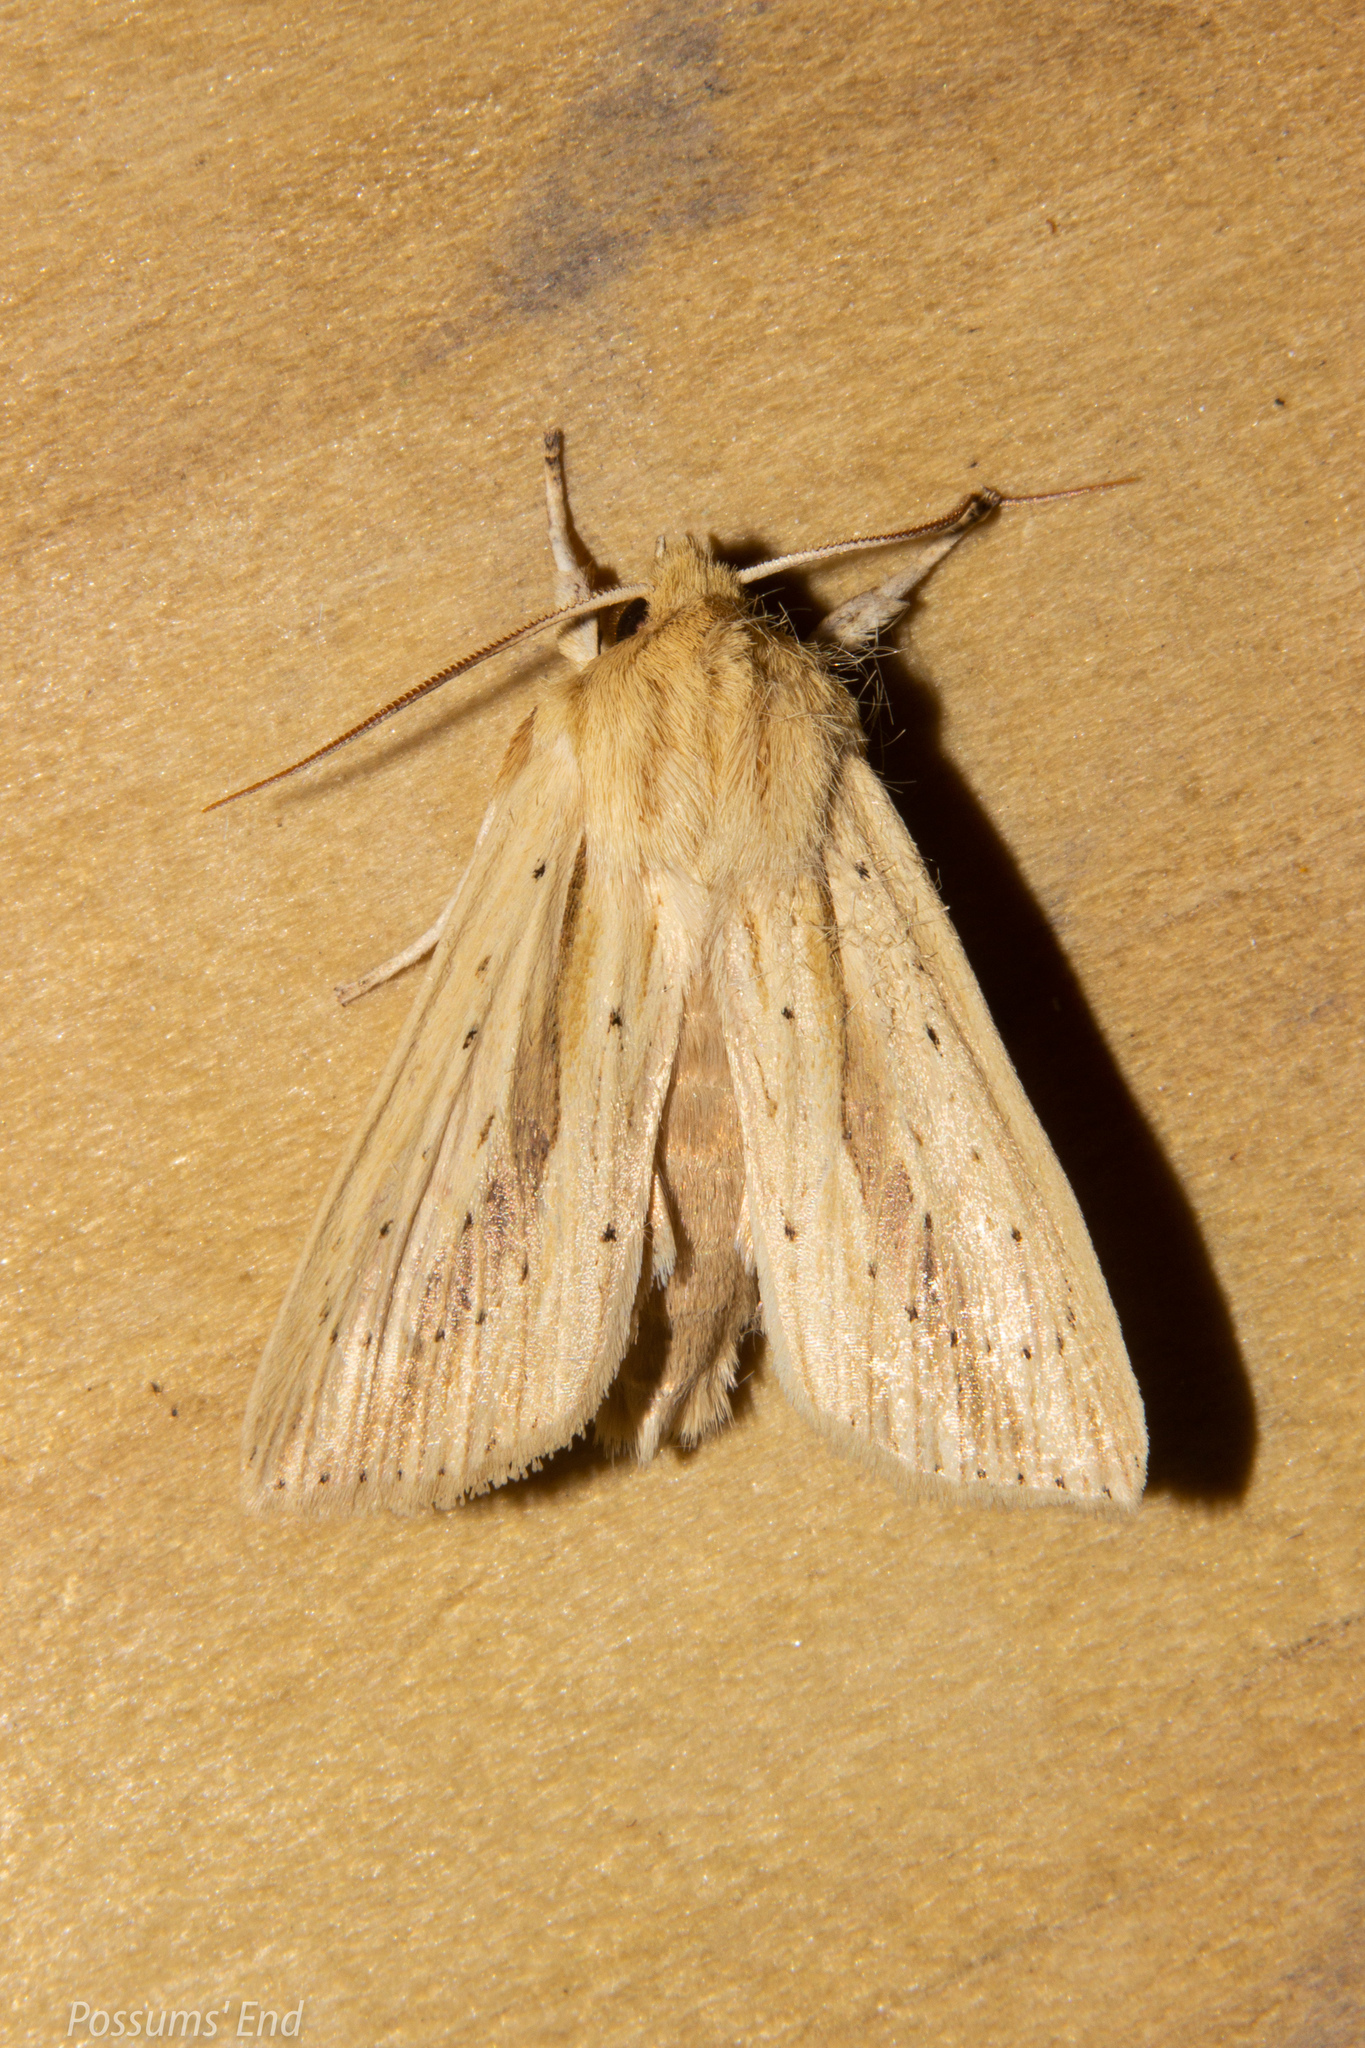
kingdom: Animalia
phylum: Arthropoda
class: Insecta
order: Lepidoptera
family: Noctuidae
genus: Ichneutica
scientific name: Ichneutica semivittata
